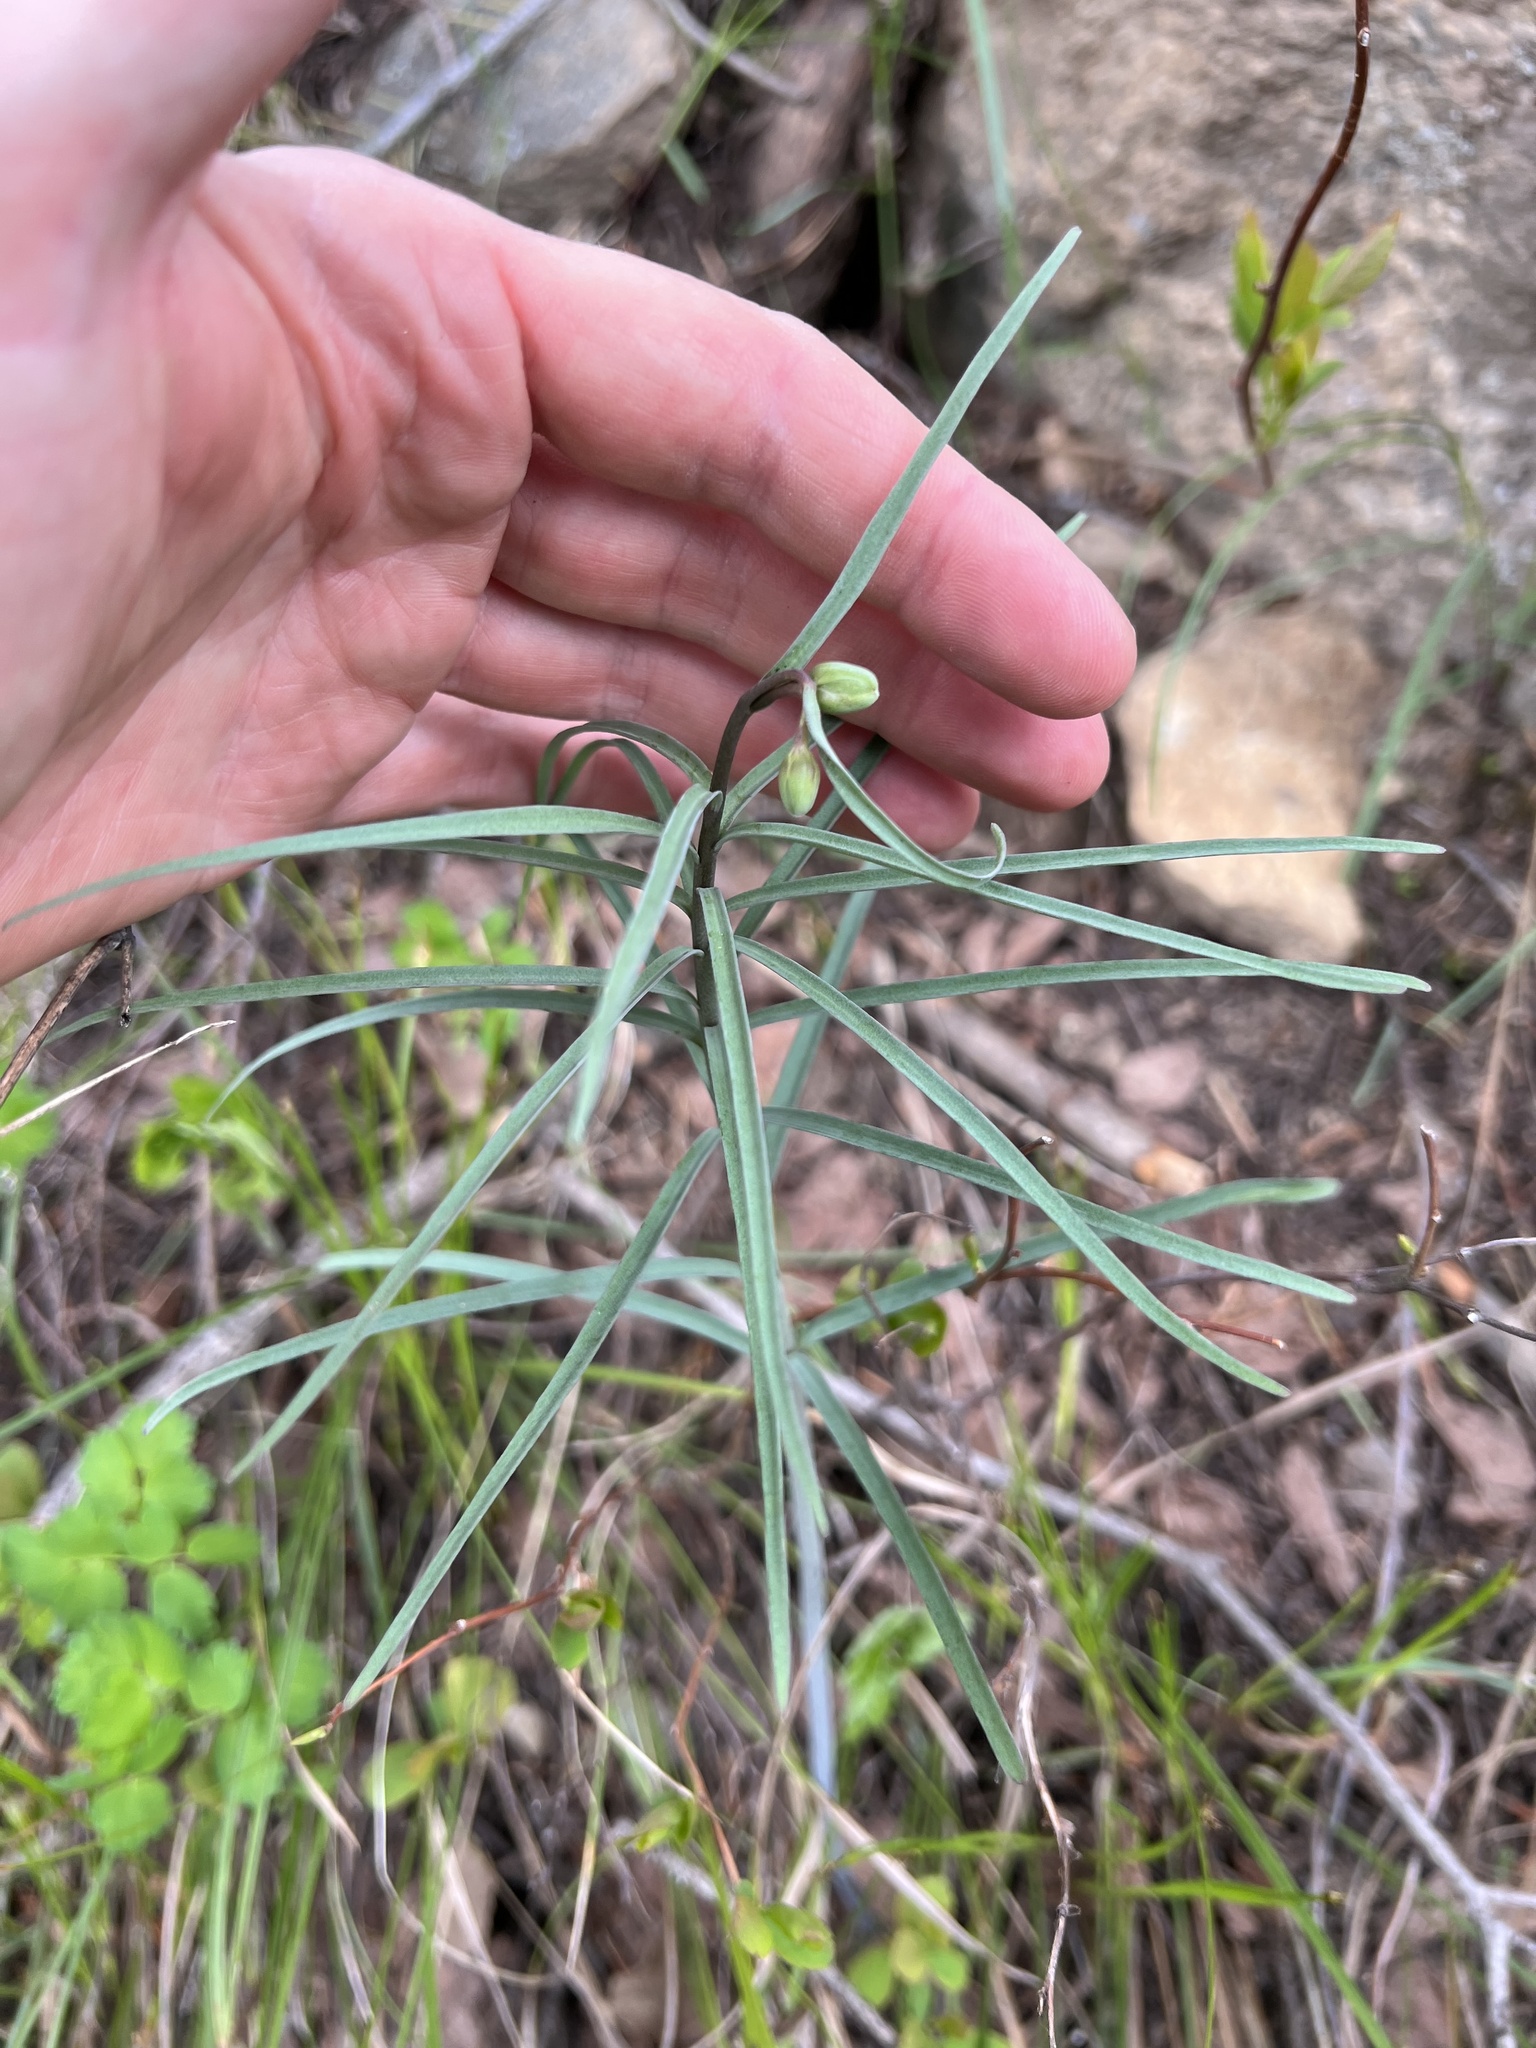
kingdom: Plantae
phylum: Tracheophyta
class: Liliopsida
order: Liliales
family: Liliaceae
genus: Fritillaria
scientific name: Fritillaria atropurpurea
